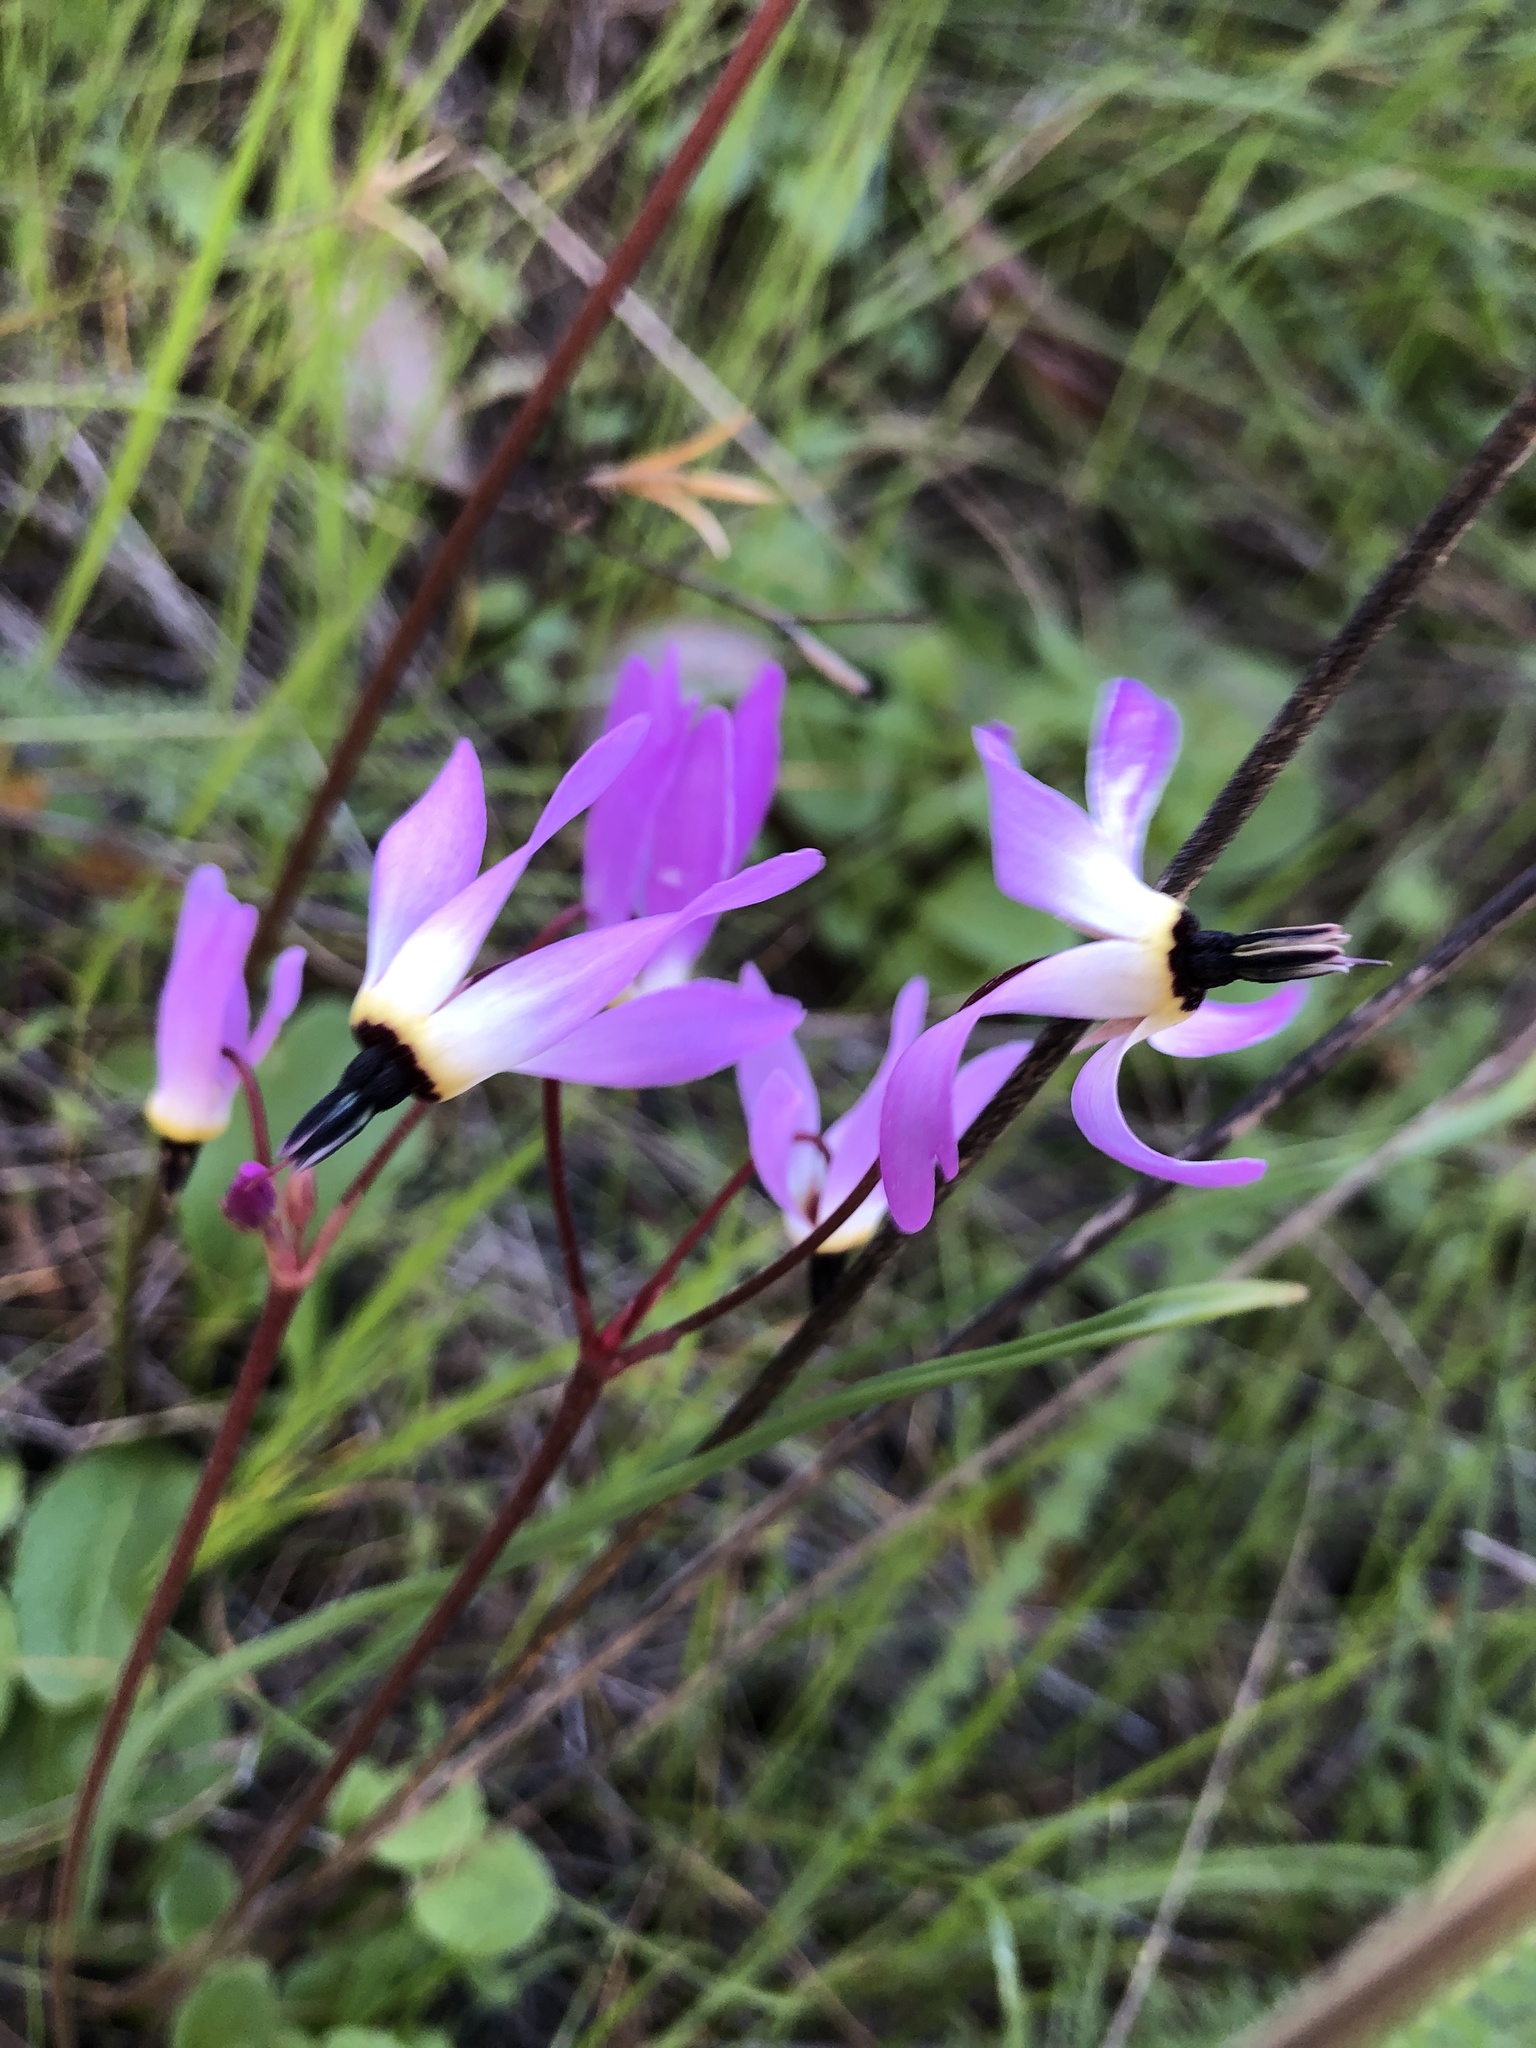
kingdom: Plantae
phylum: Tracheophyta
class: Magnoliopsida
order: Ericales
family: Primulaceae
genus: Dodecatheon
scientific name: Dodecatheon hendersonii
